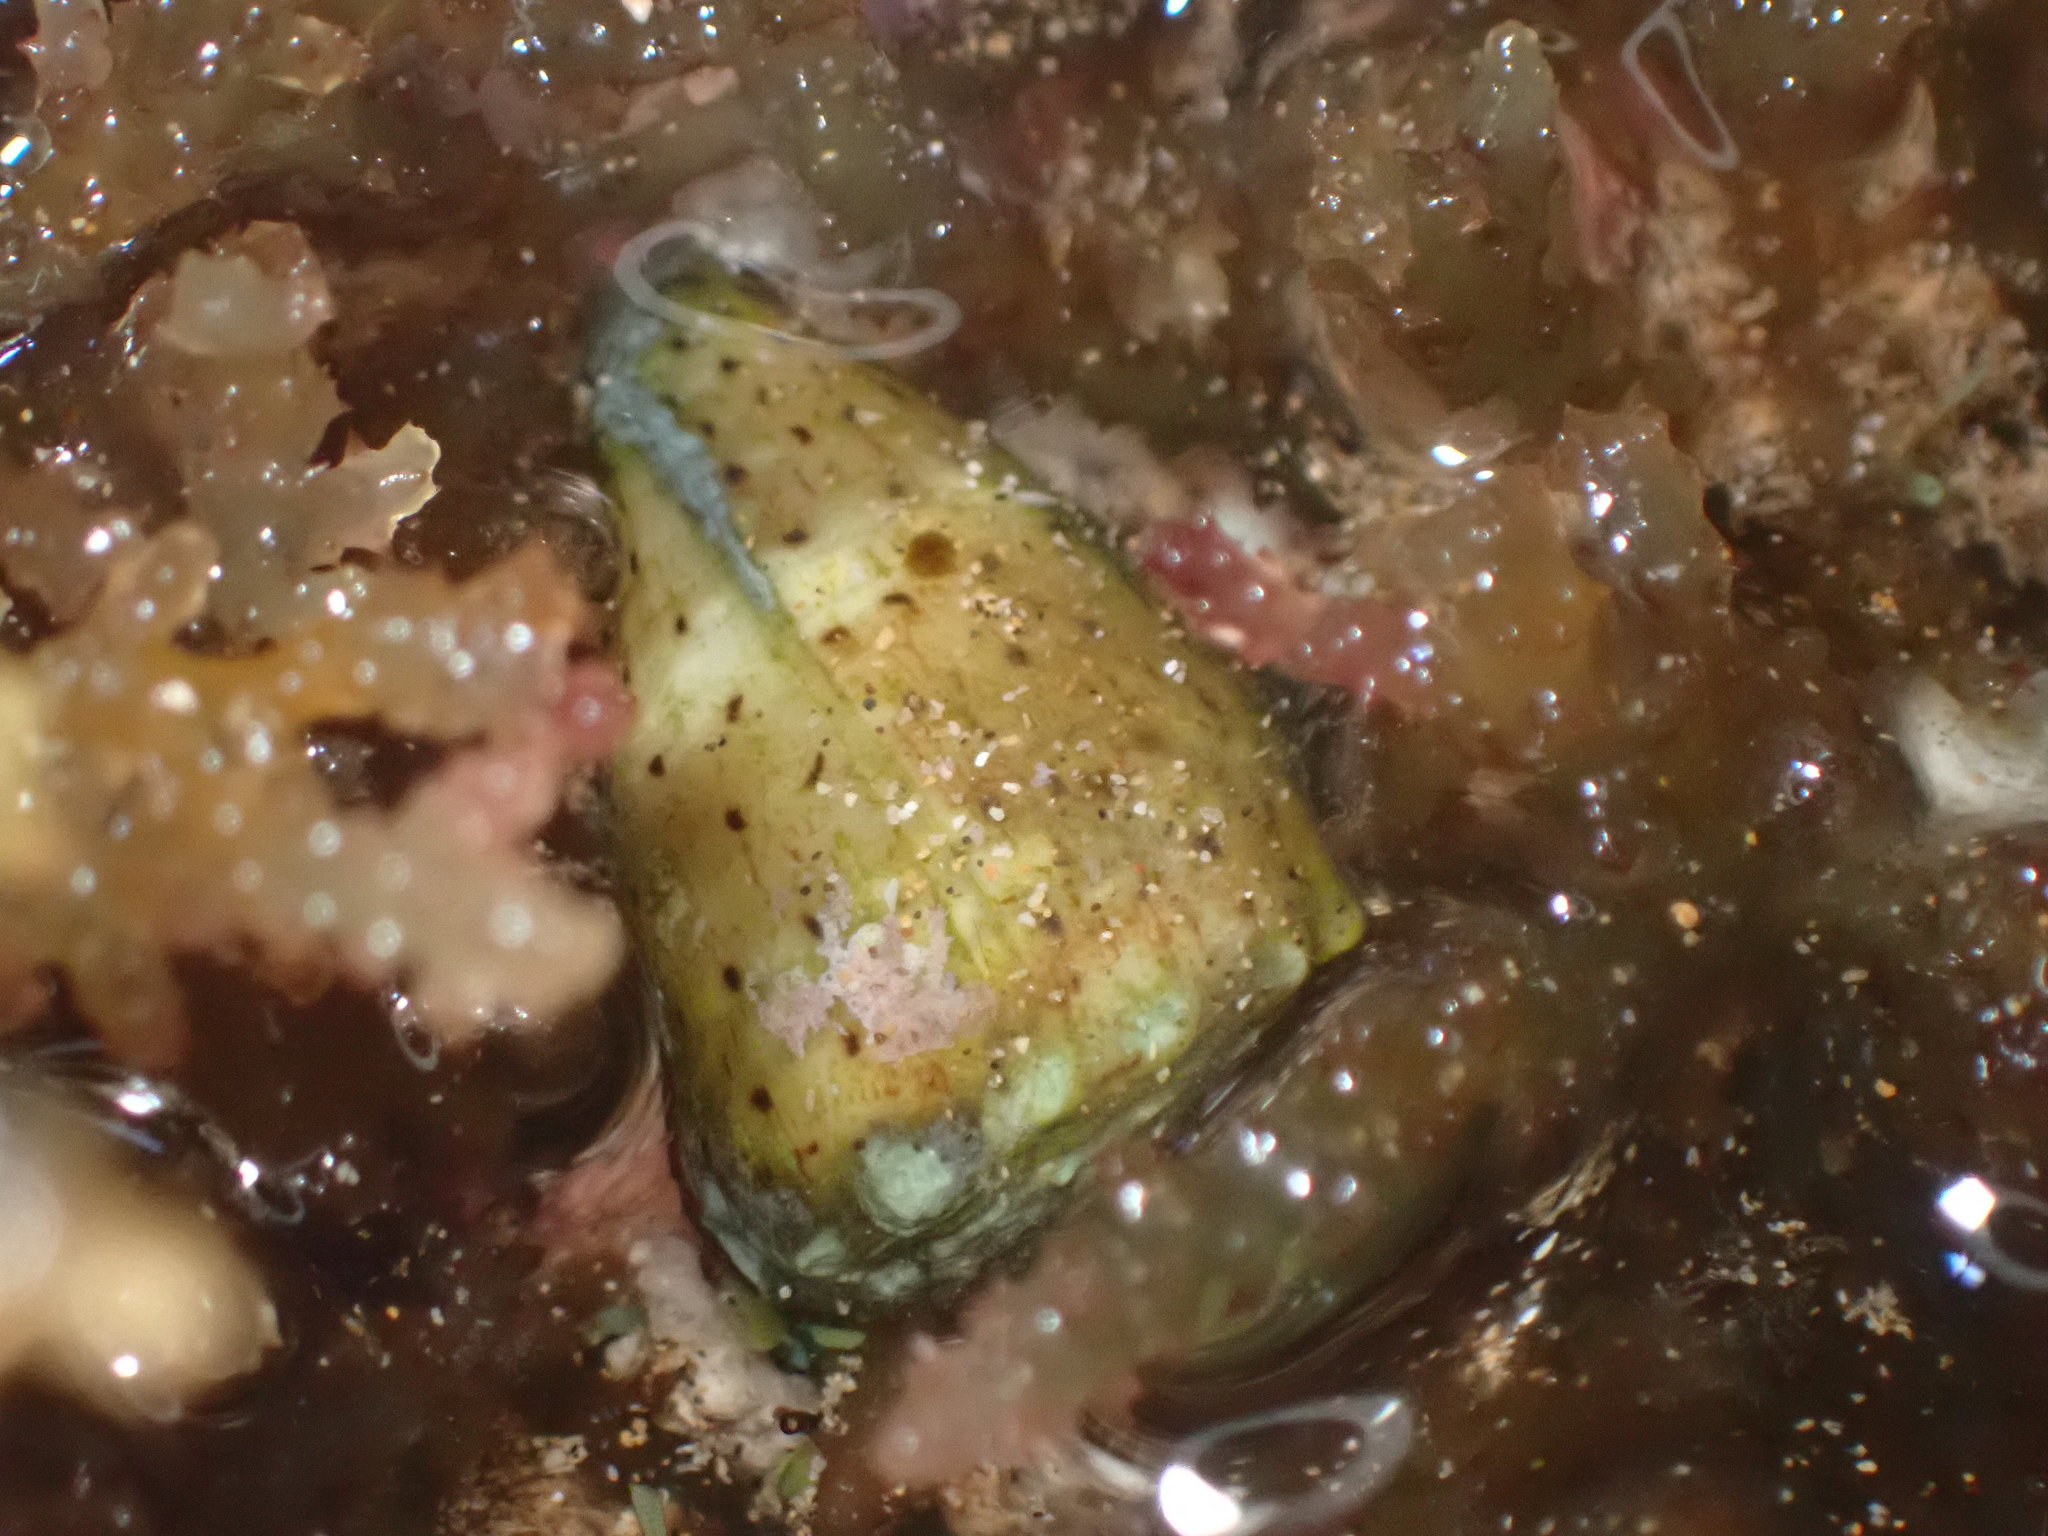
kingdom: Animalia
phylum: Mollusca
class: Gastropoda
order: Neogastropoda
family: Conidae
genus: Conus
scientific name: Conus abbreviatus
